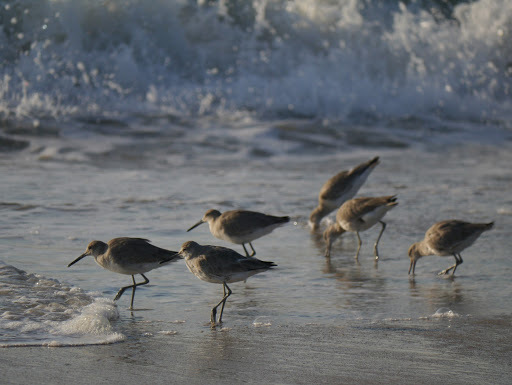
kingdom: Animalia
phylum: Chordata
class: Aves
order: Charadriiformes
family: Scolopacidae
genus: Tringa
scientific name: Tringa semipalmata
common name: Willet
